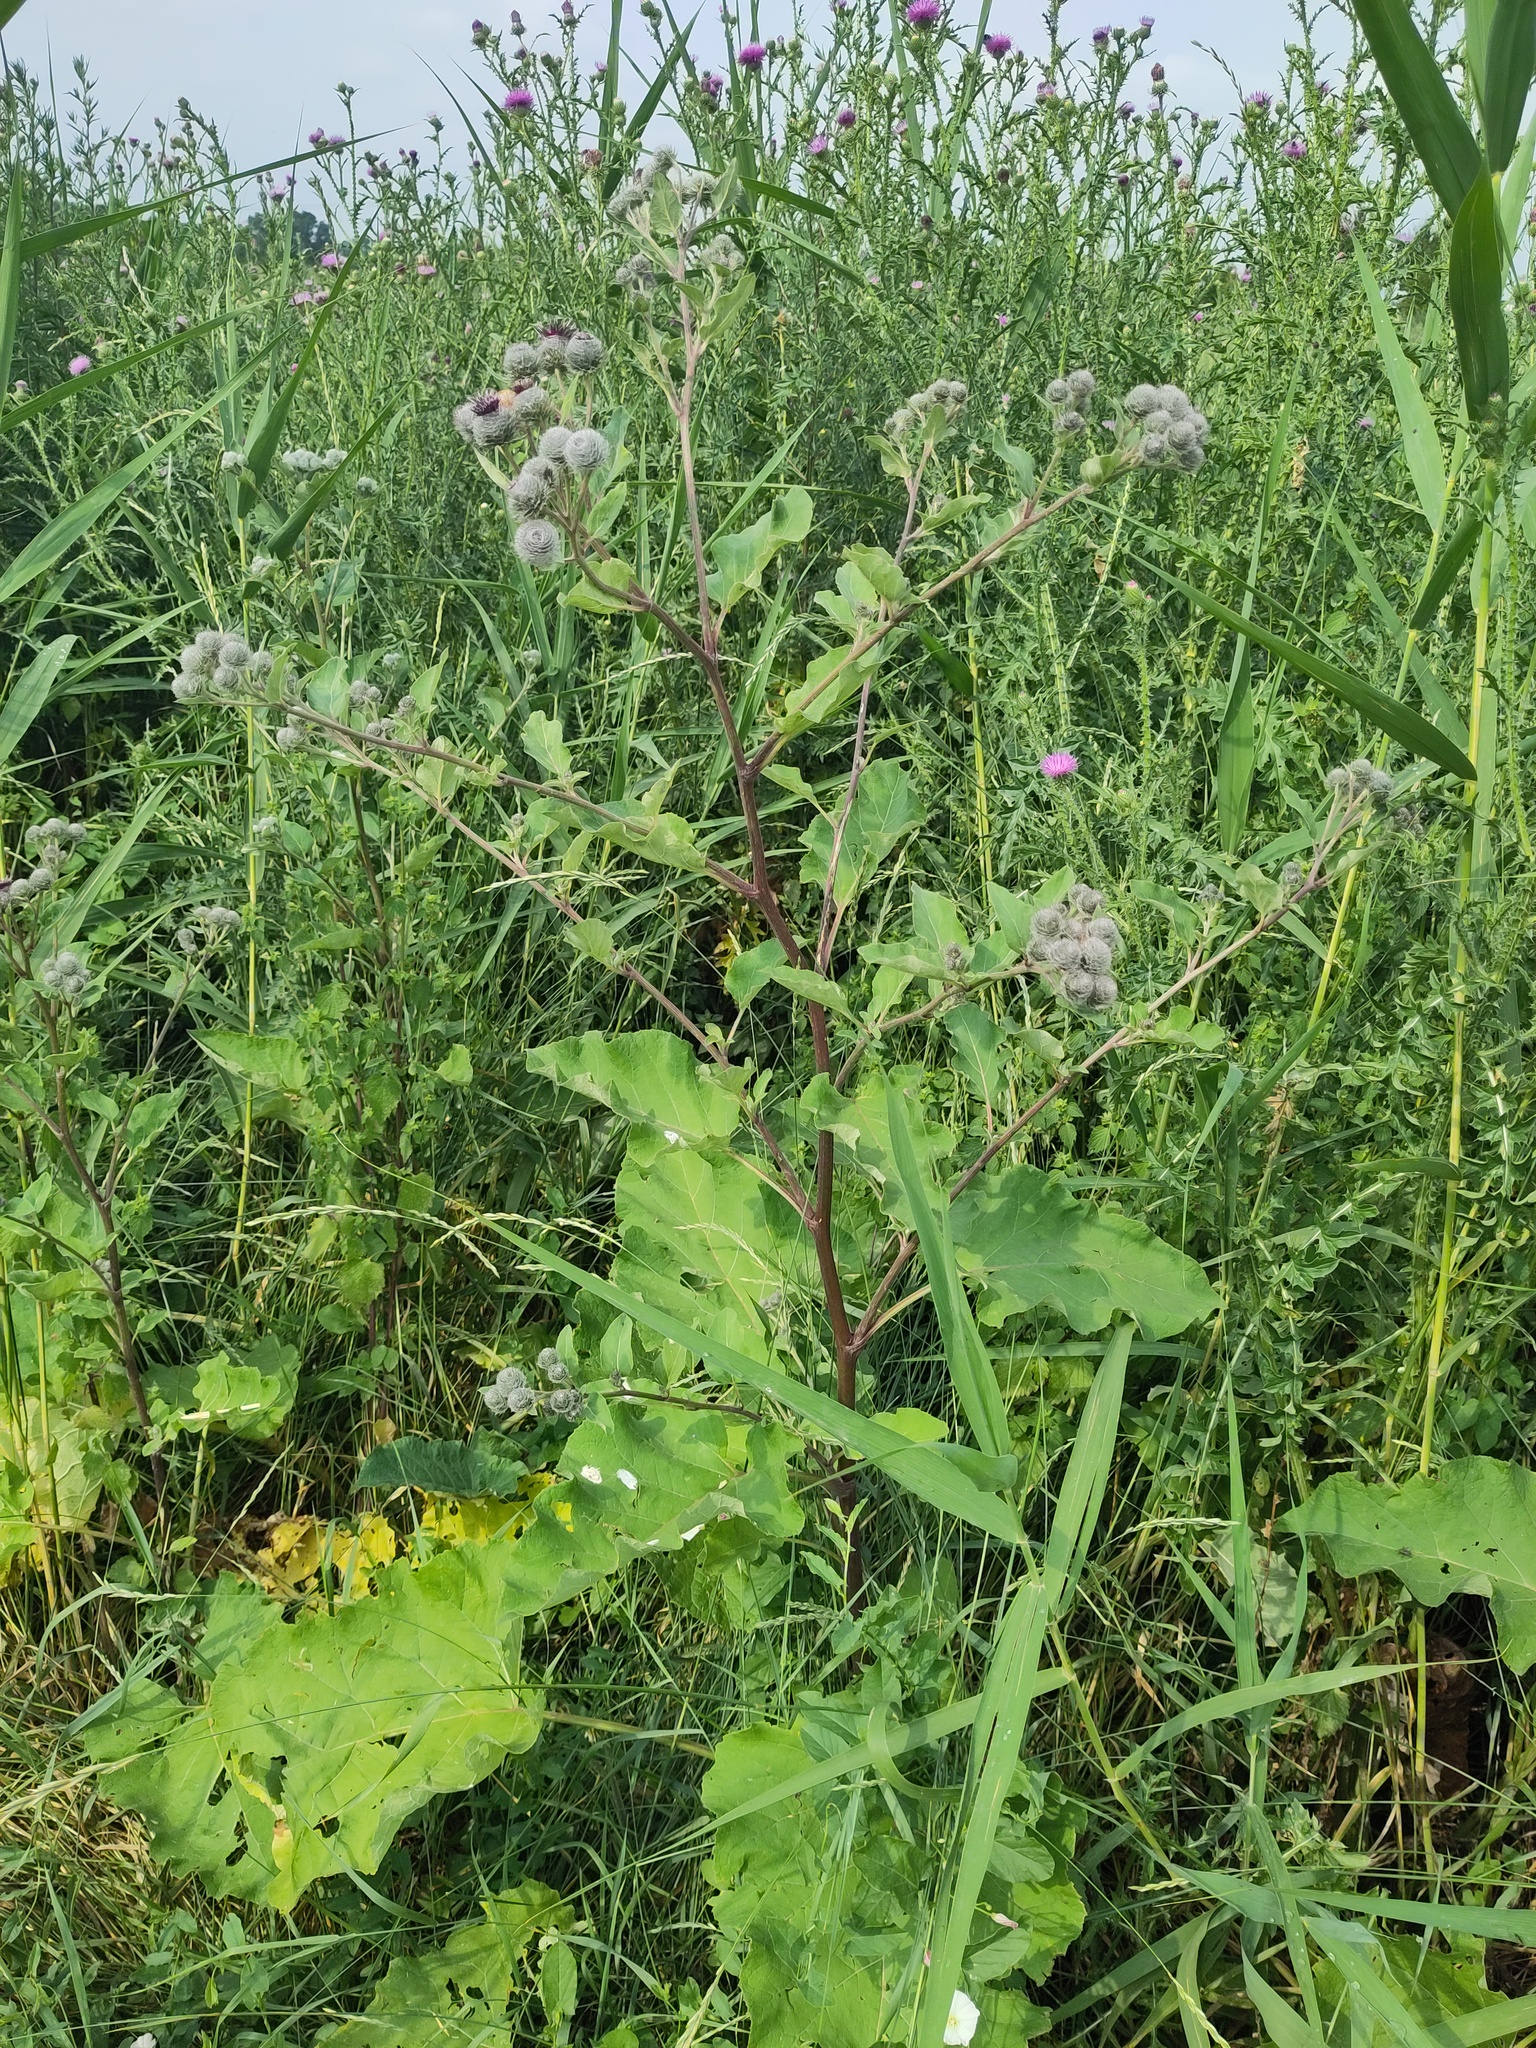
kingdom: Plantae
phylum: Tracheophyta
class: Magnoliopsida
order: Asterales
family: Asteraceae
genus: Arctium
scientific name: Arctium tomentosum
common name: Woolly burdock
